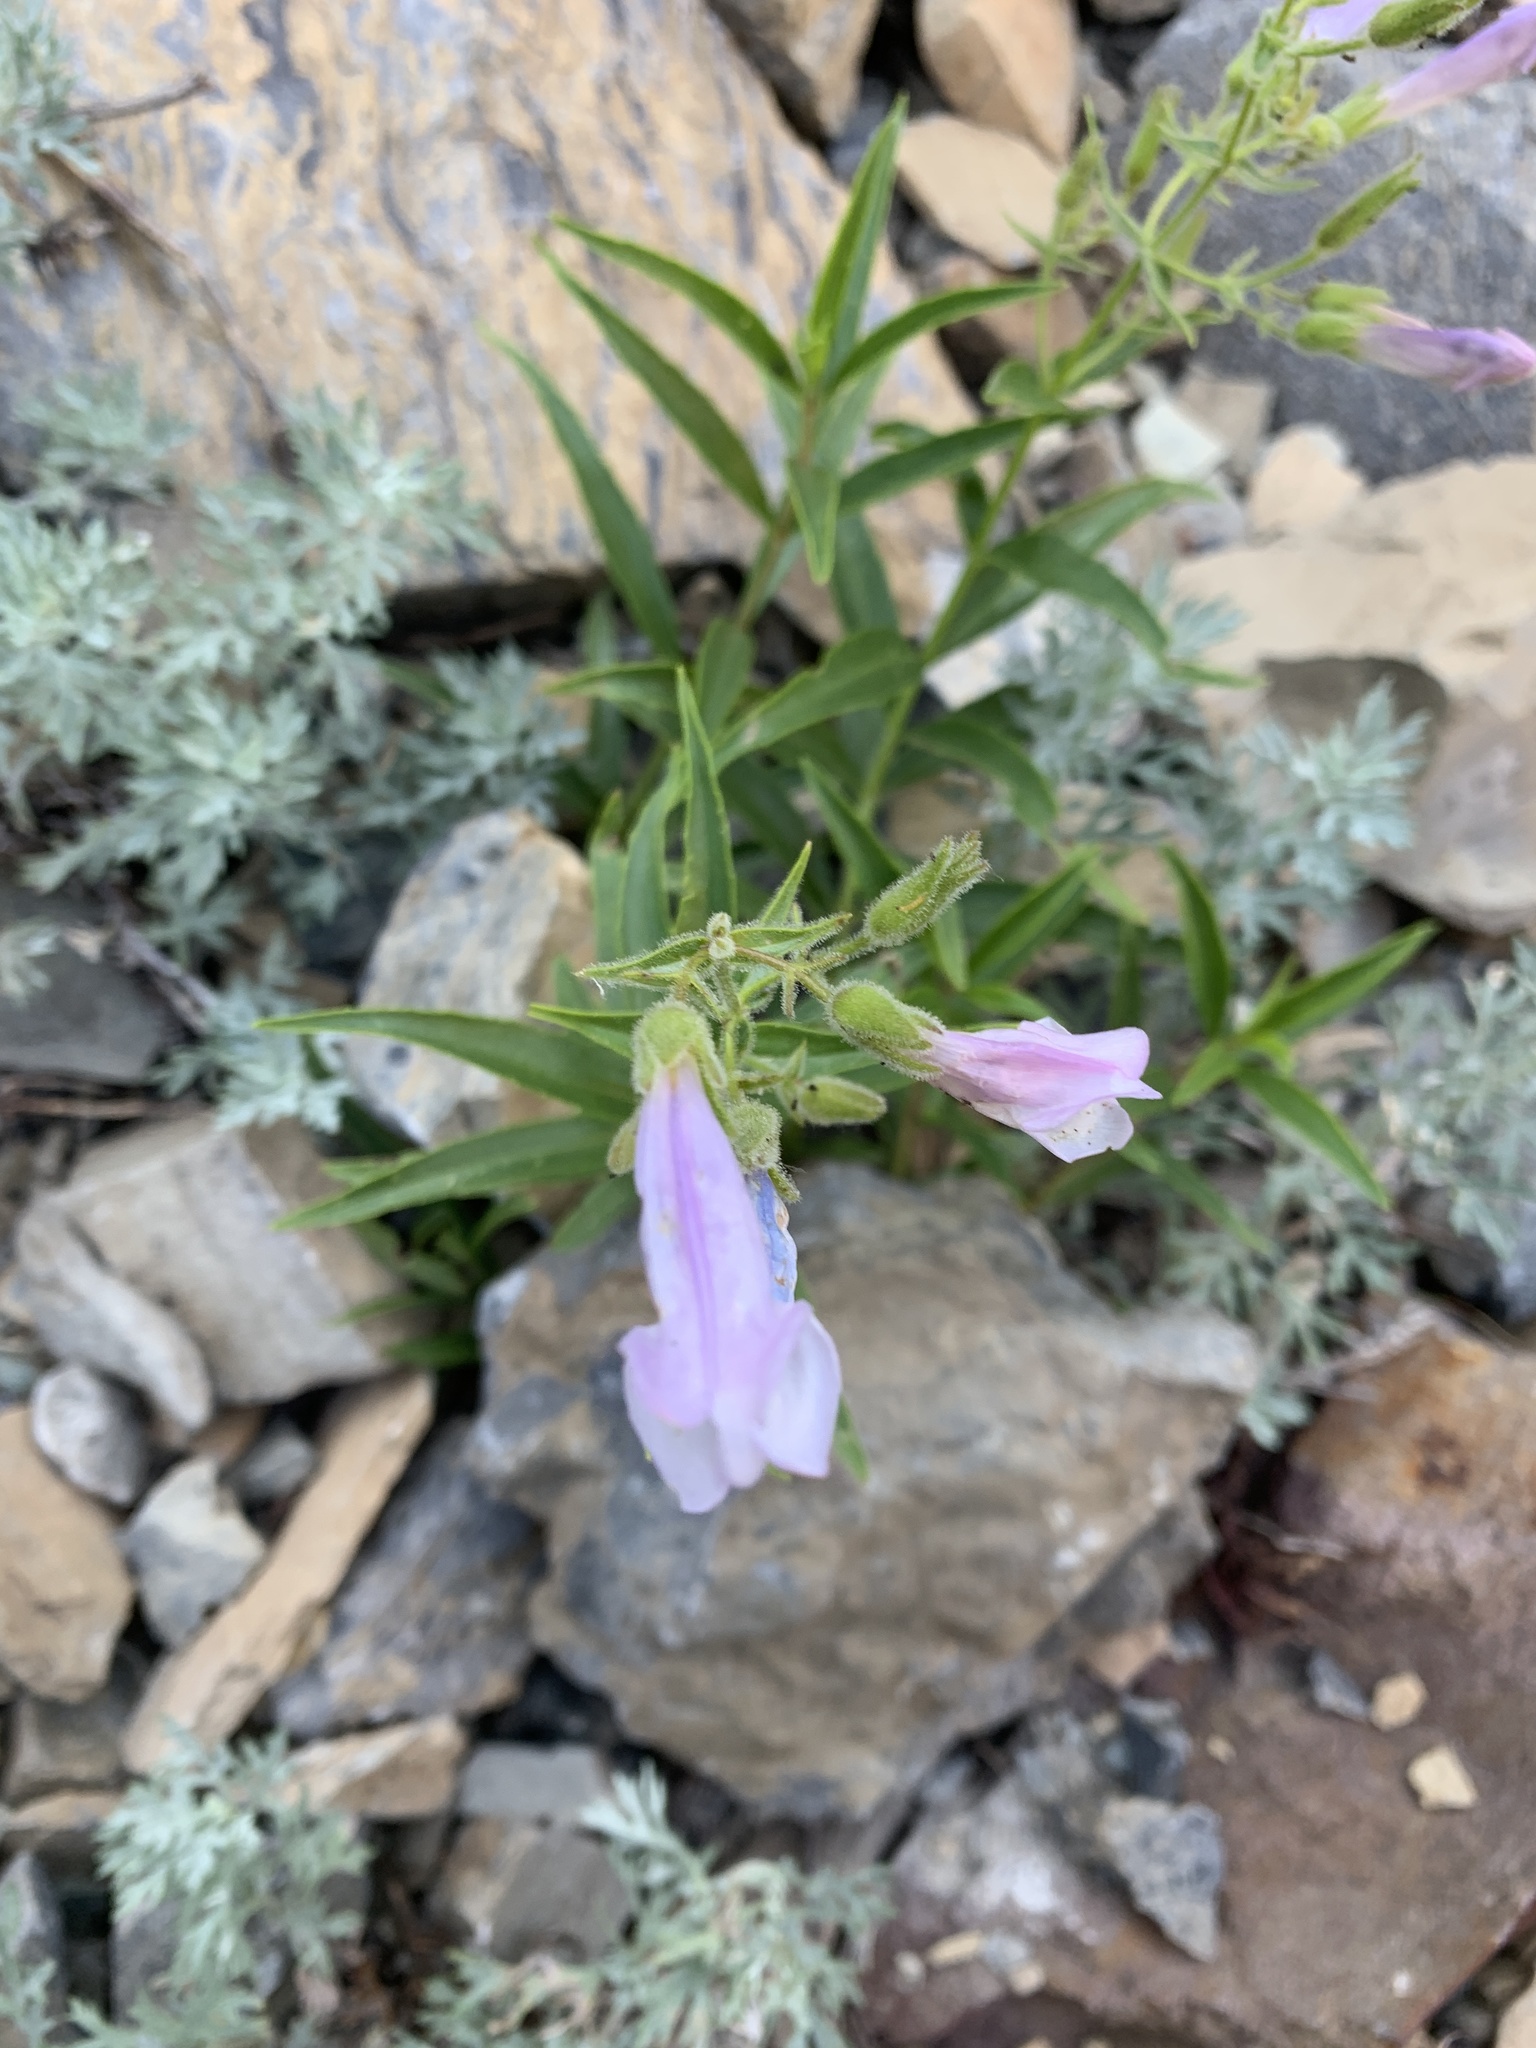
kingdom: Plantae
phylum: Tracheophyta
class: Magnoliopsida
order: Lamiales
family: Plantaginaceae
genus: Penstemon
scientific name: Penstemon lyalli
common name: Lyall's beardtongue
